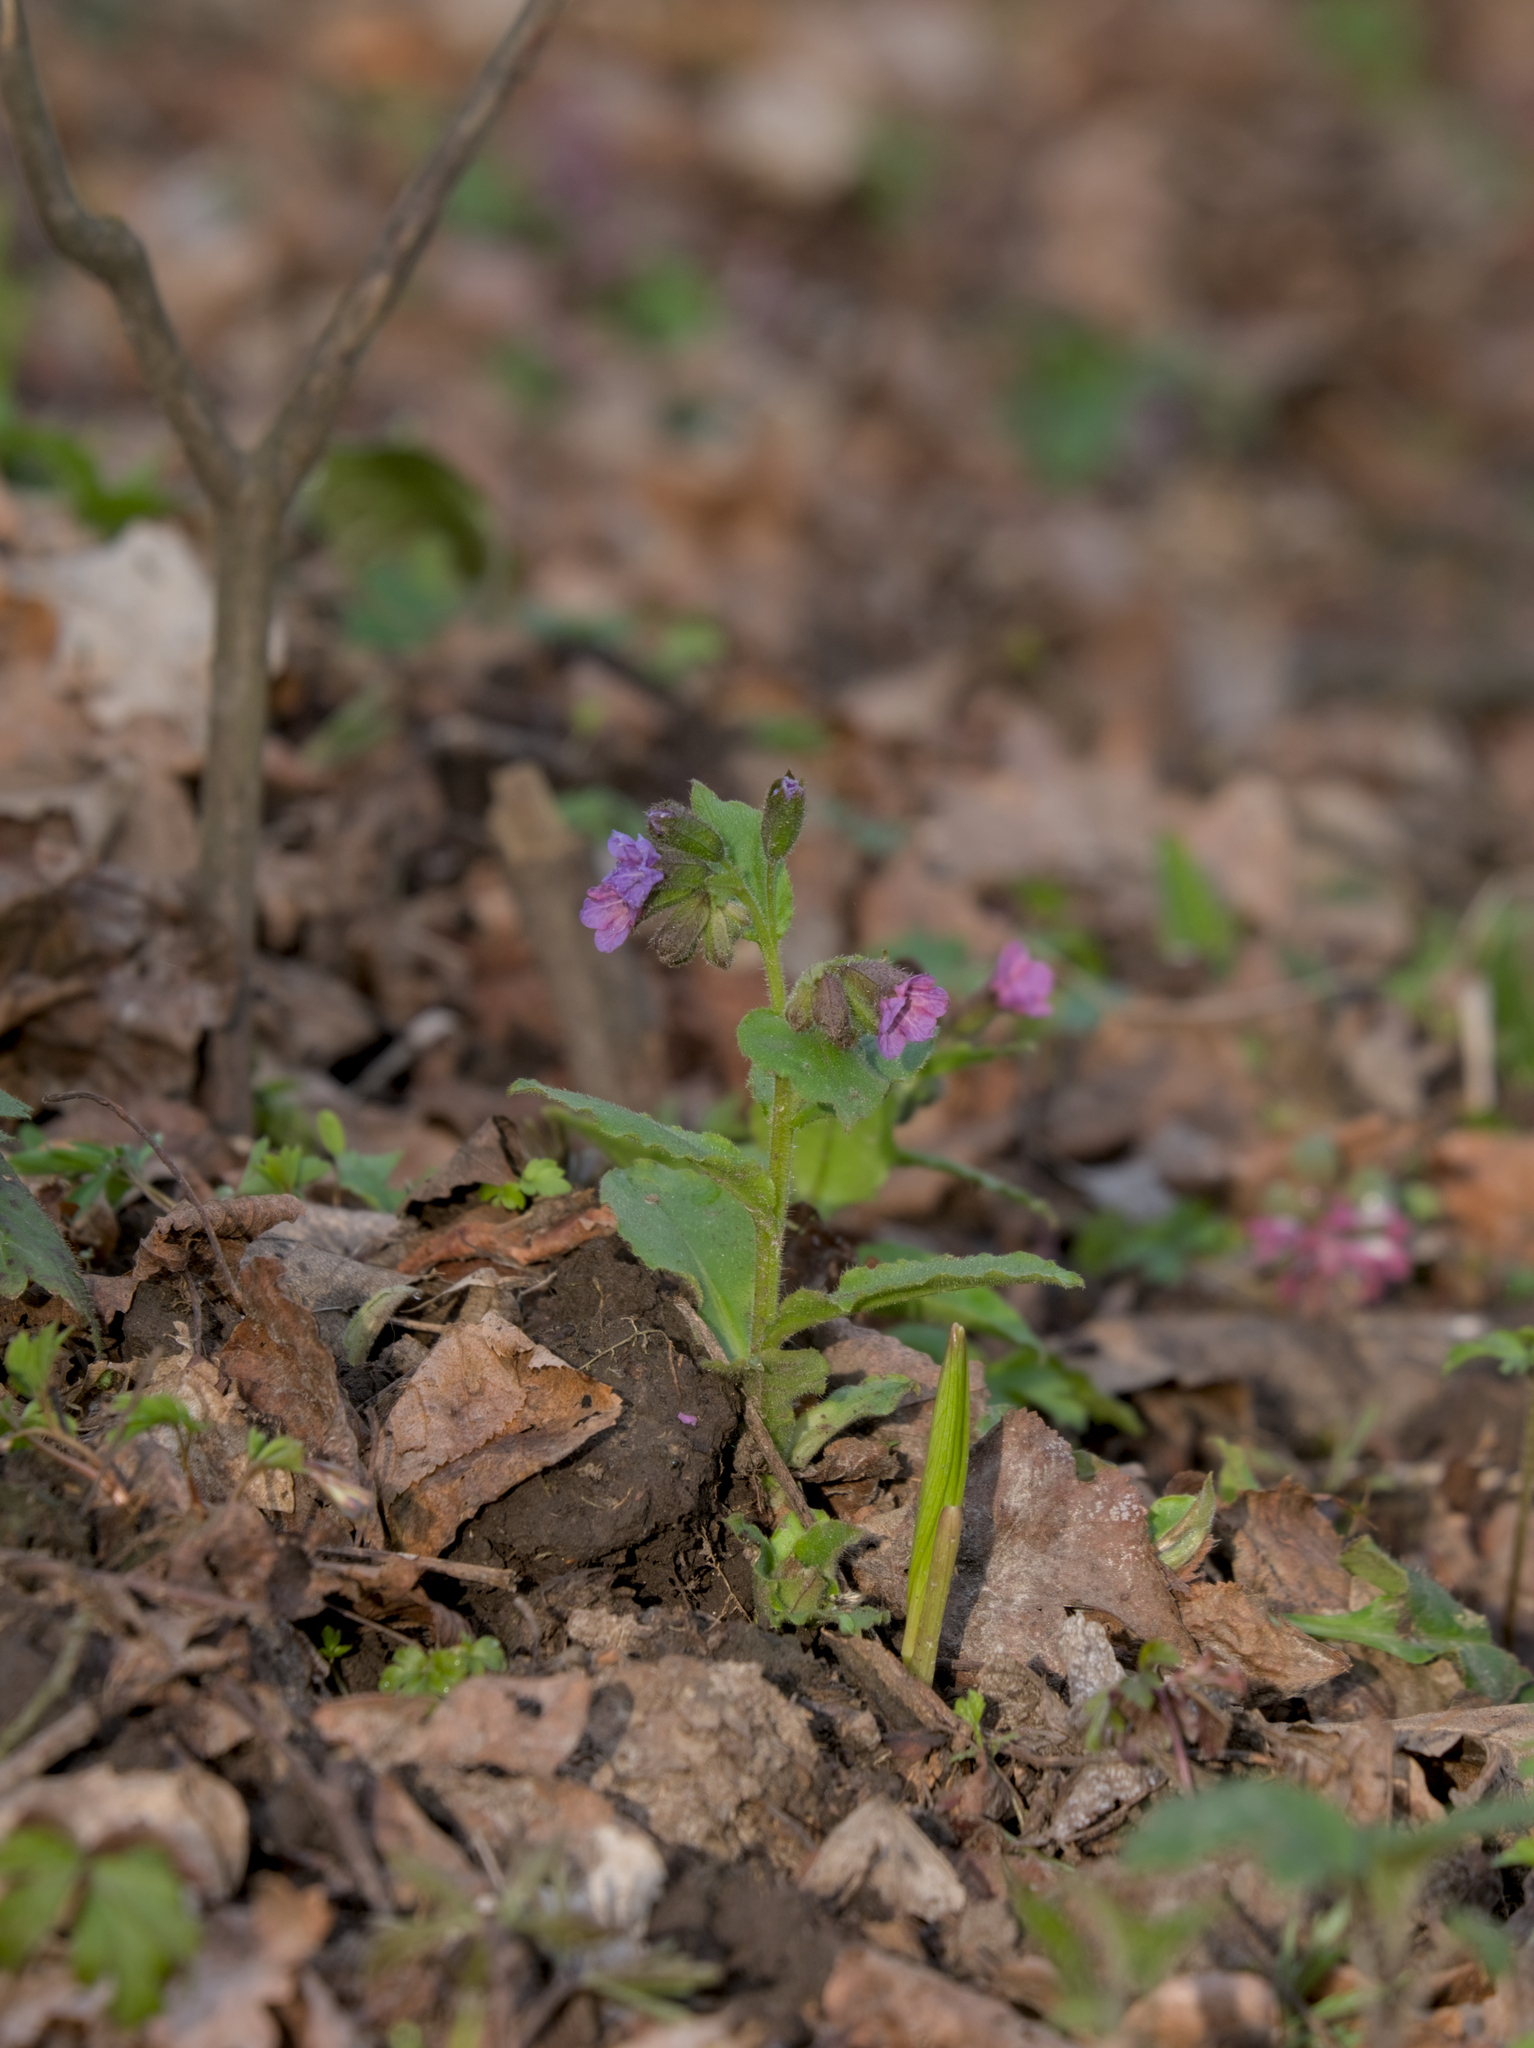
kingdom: Plantae
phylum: Tracheophyta
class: Magnoliopsida
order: Boraginales
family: Boraginaceae
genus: Pulmonaria
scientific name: Pulmonaria obscura
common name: Suffolk lungwort
